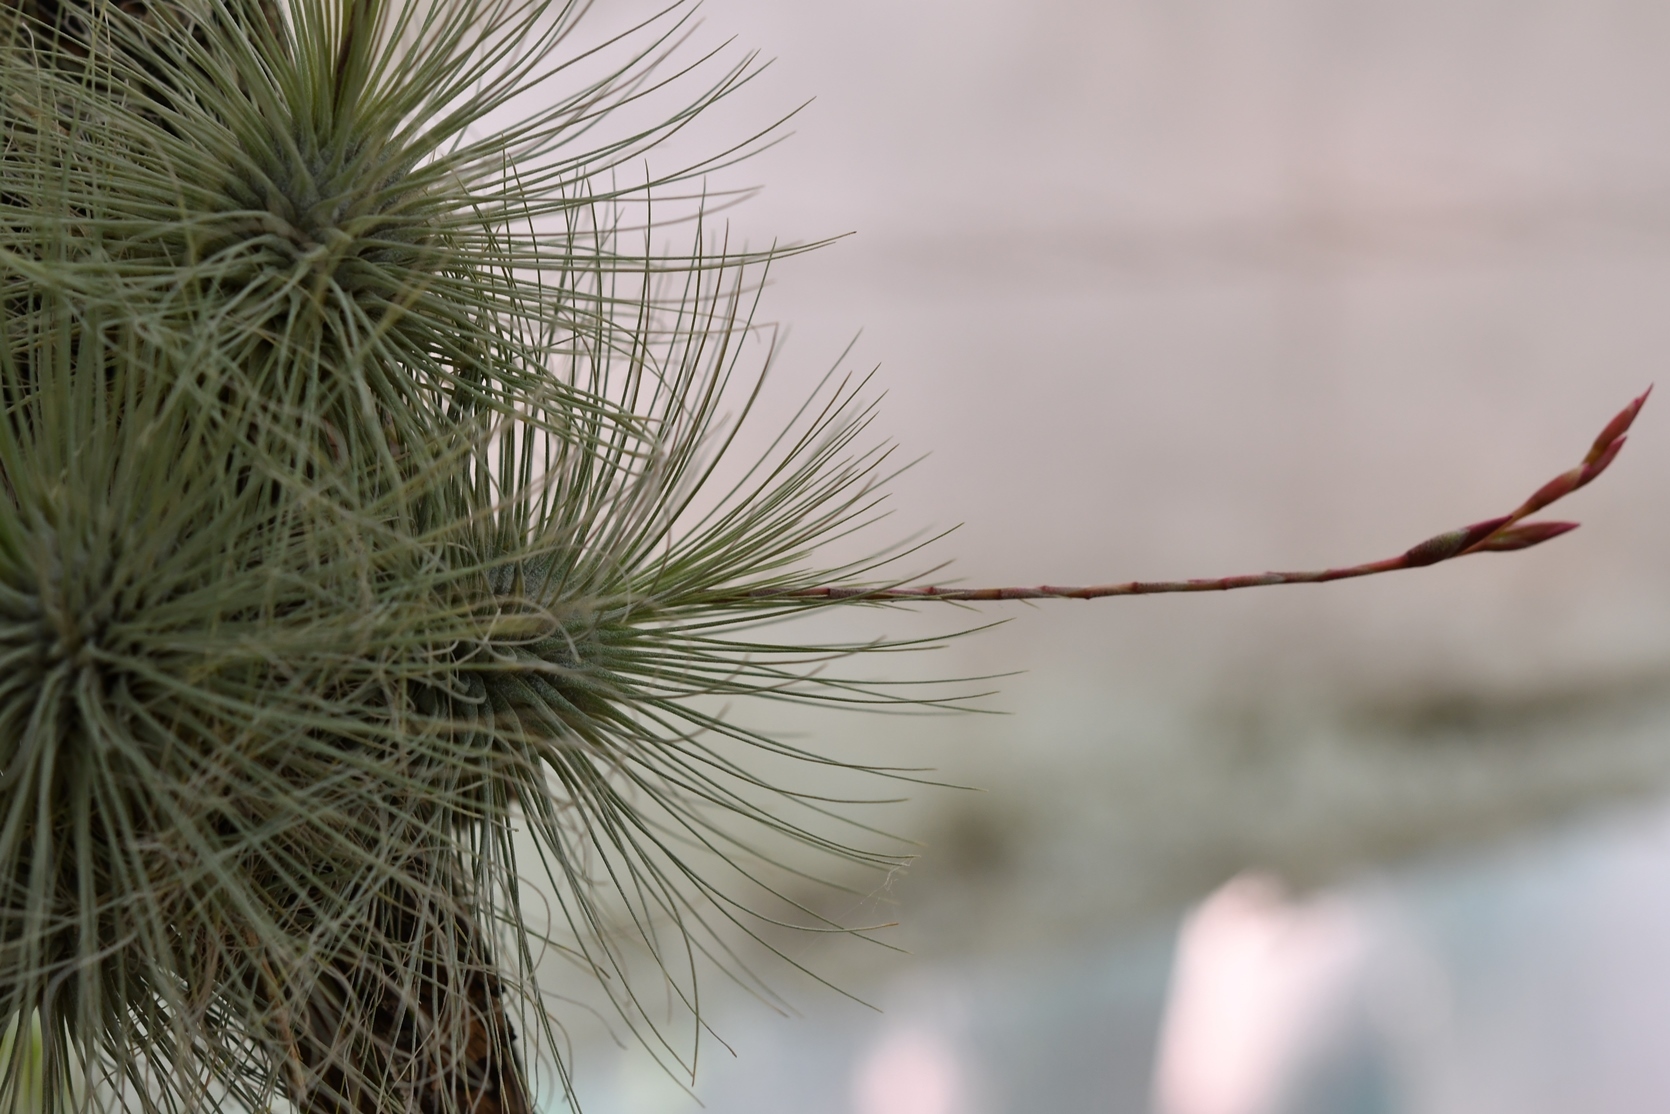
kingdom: Plantae
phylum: Tracheophyta
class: Liliopsida
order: Poales
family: Bromeliaceae
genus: Tillandsia
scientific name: Tillandsia fuchsii
